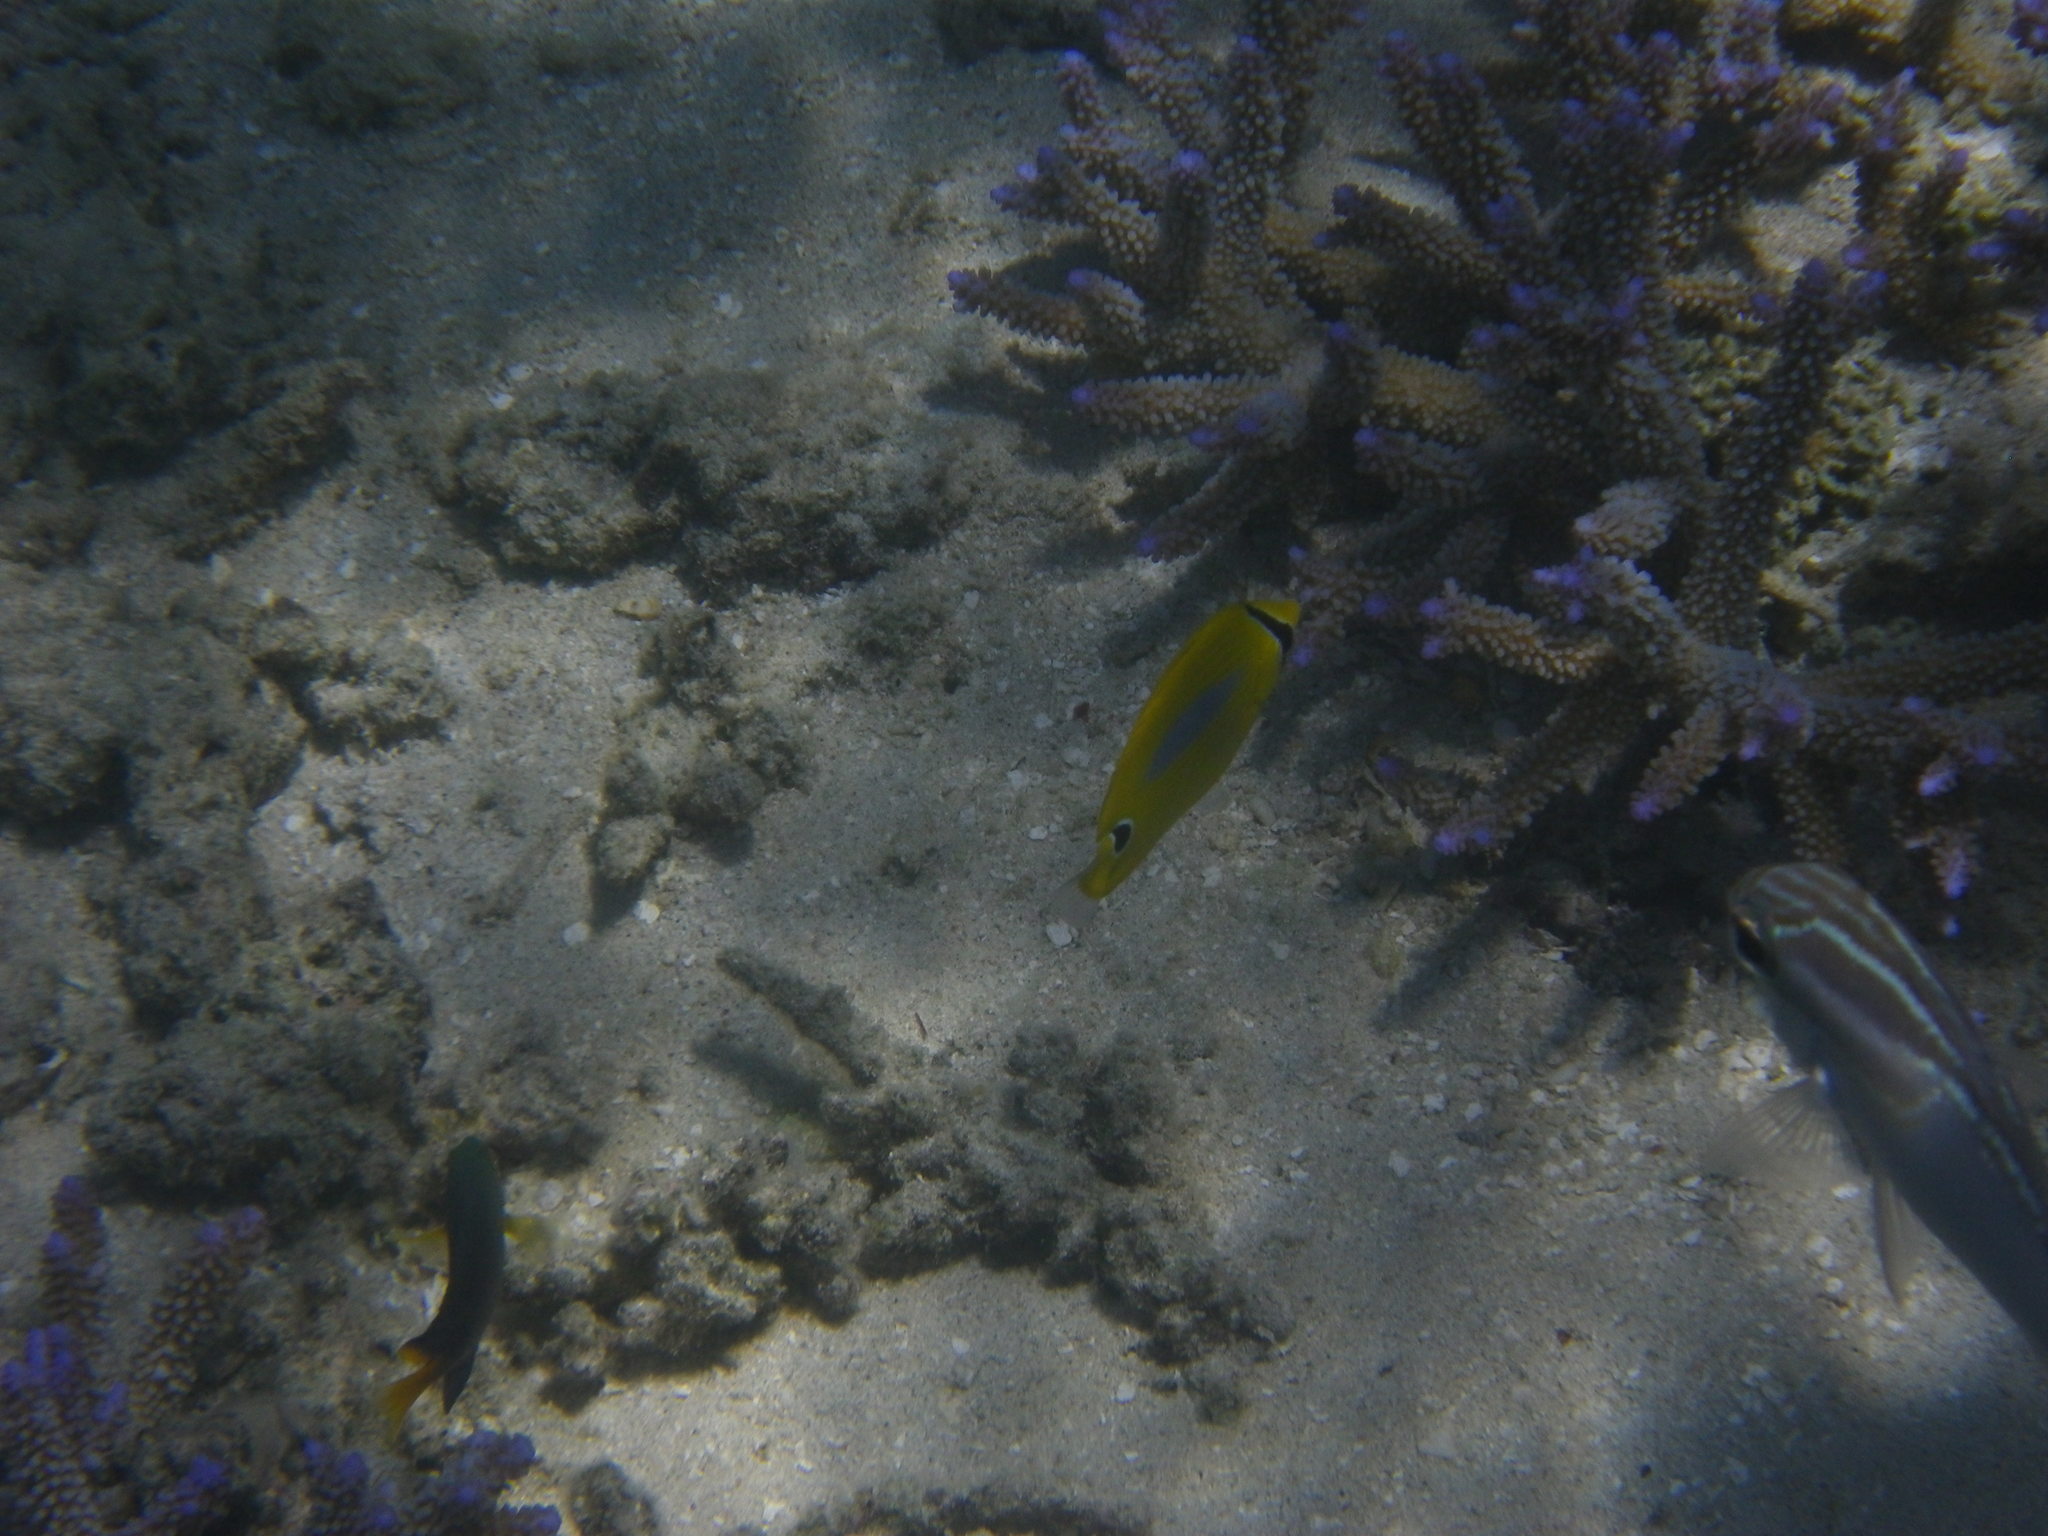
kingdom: Animalia
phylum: Chordata
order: Perciformes
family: Chaetodontidae
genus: Chaetodon
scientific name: Chaetodon plebeius
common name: Bluespot butterflyfish
